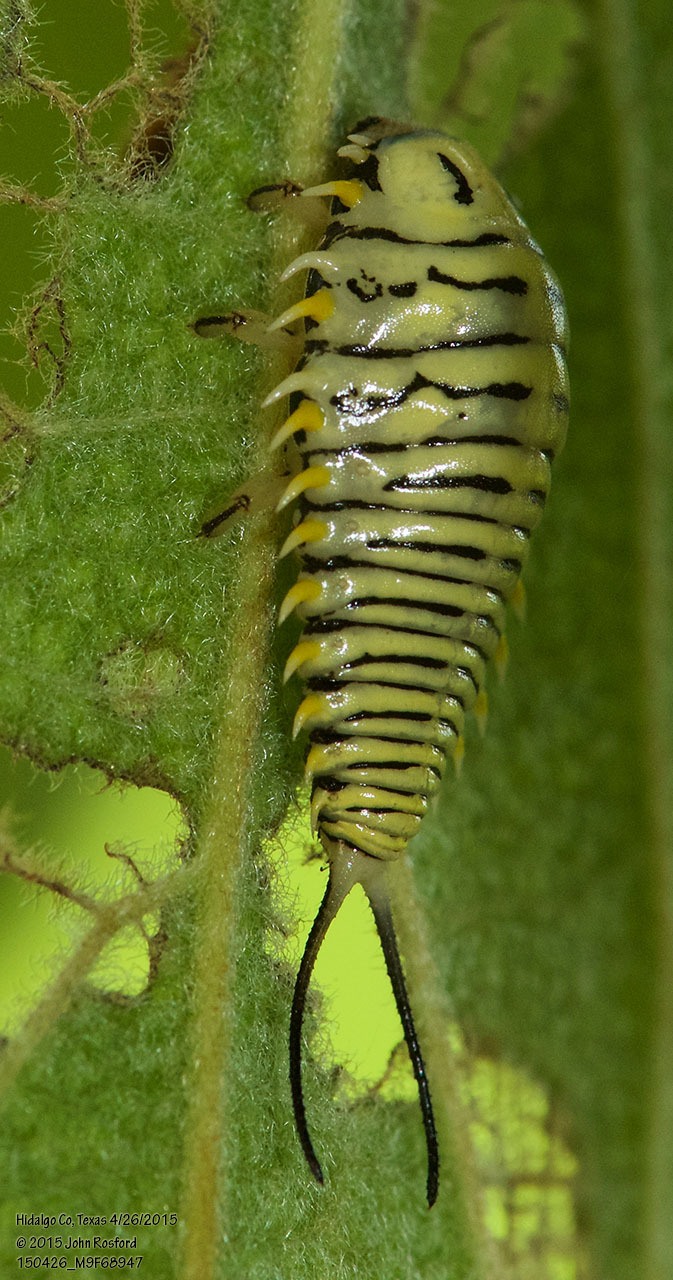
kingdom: Animalia
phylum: Arthropoda
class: Insecta
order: Coleoptera
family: Chrysomelidae
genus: Physonota
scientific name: Physonota alutacea
